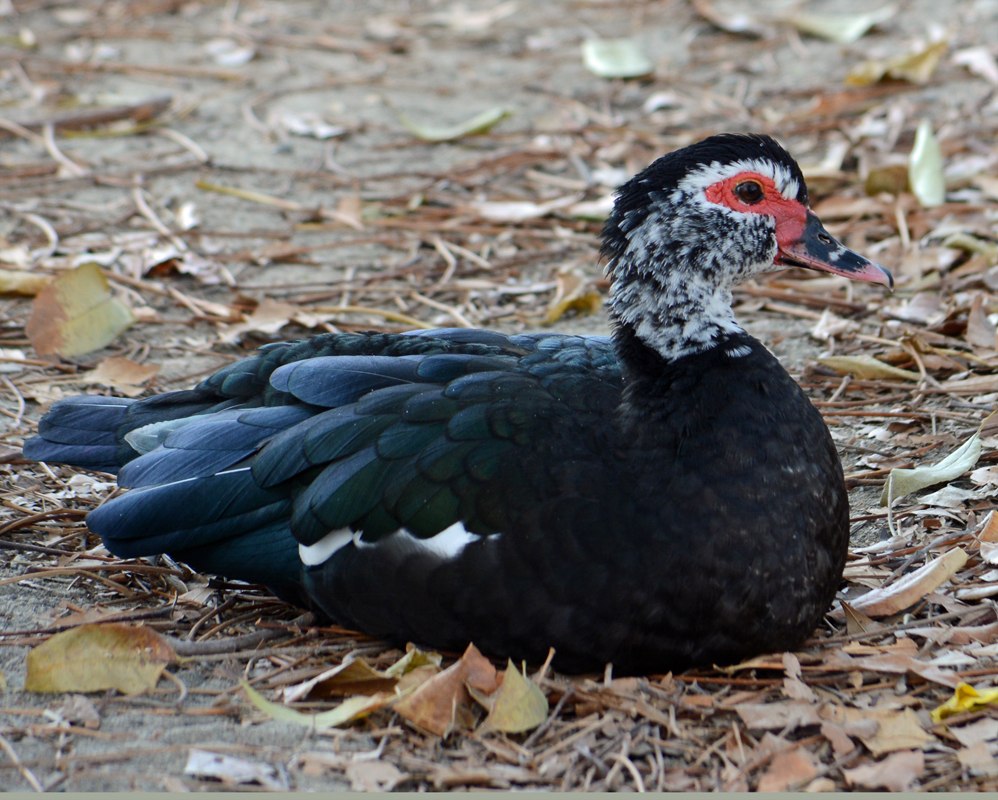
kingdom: Animalia
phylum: Chordata
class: Aves
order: Anseriformes
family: Anatidae
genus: Cairina
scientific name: Cairina moschata
